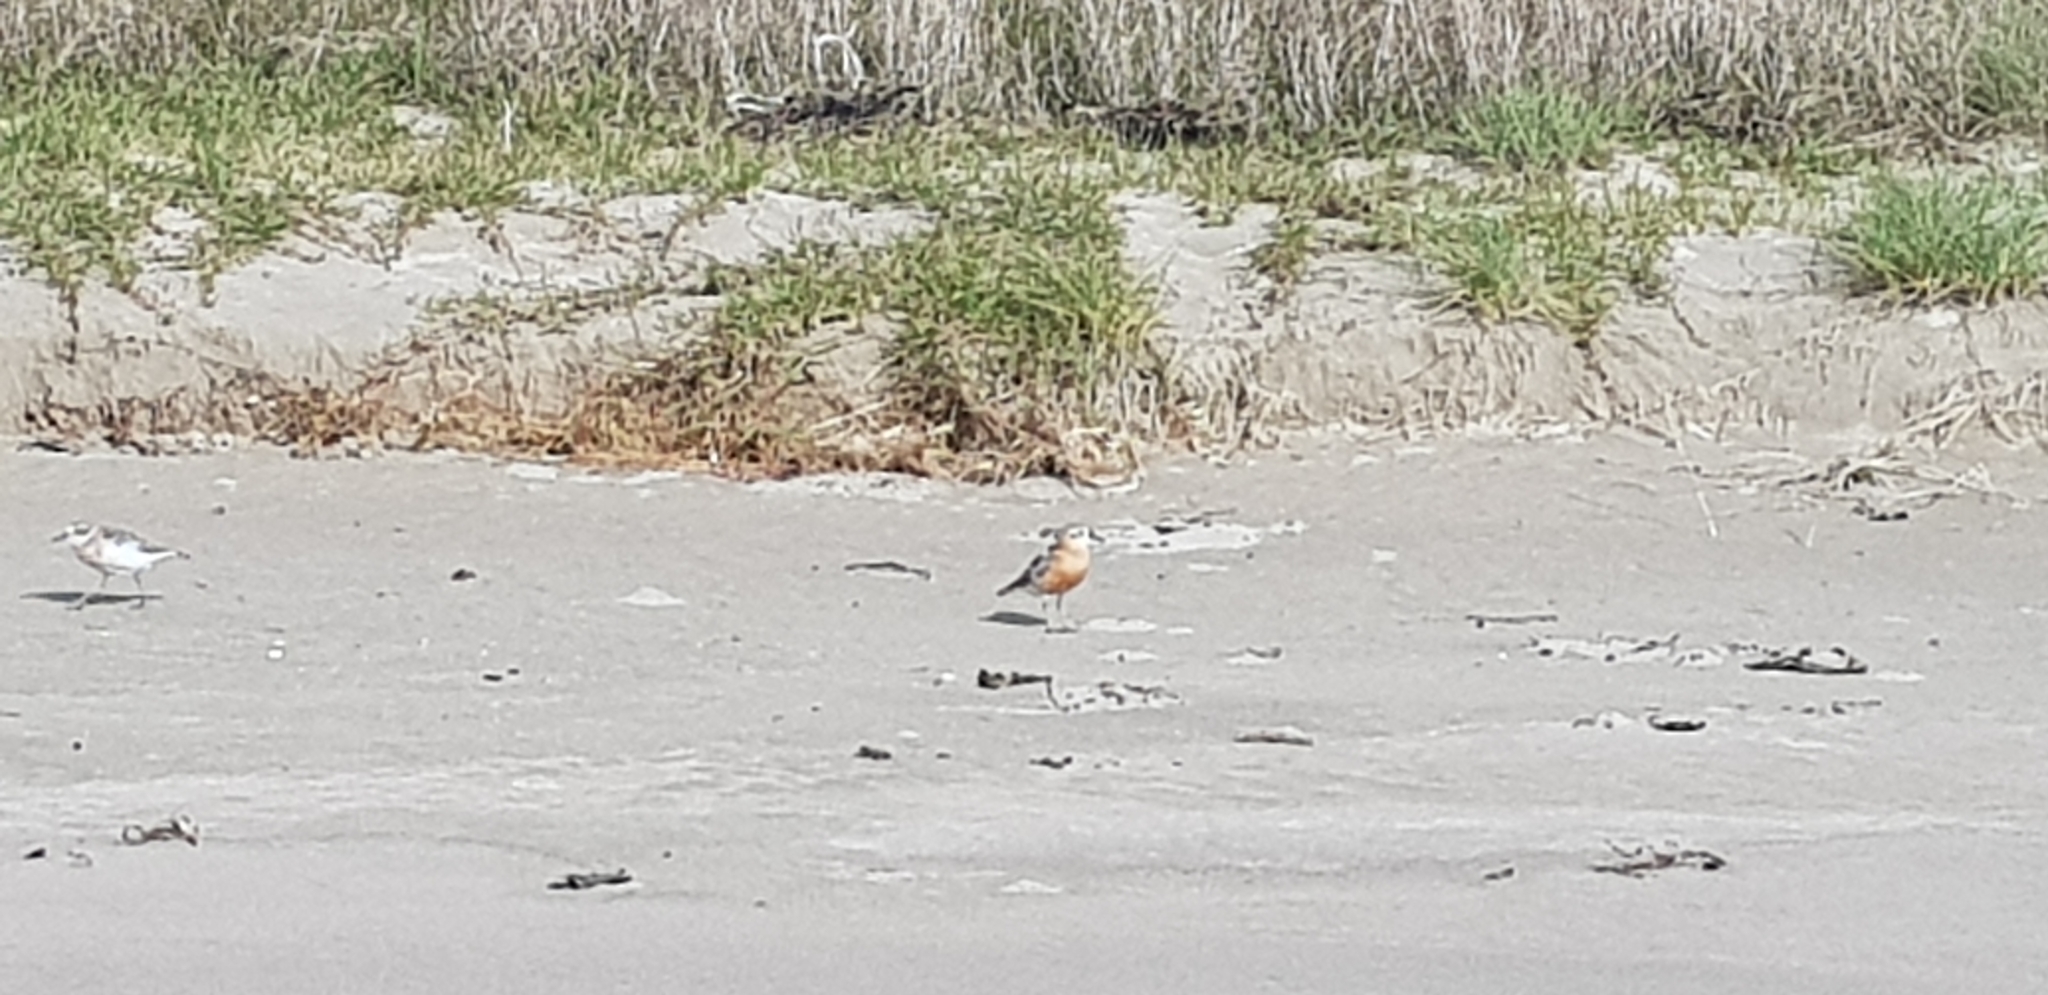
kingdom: Animalia
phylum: Chordata
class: Aves
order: Charadriiformes
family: Charadriidae
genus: Anarhynchus
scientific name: Anarhynchus
